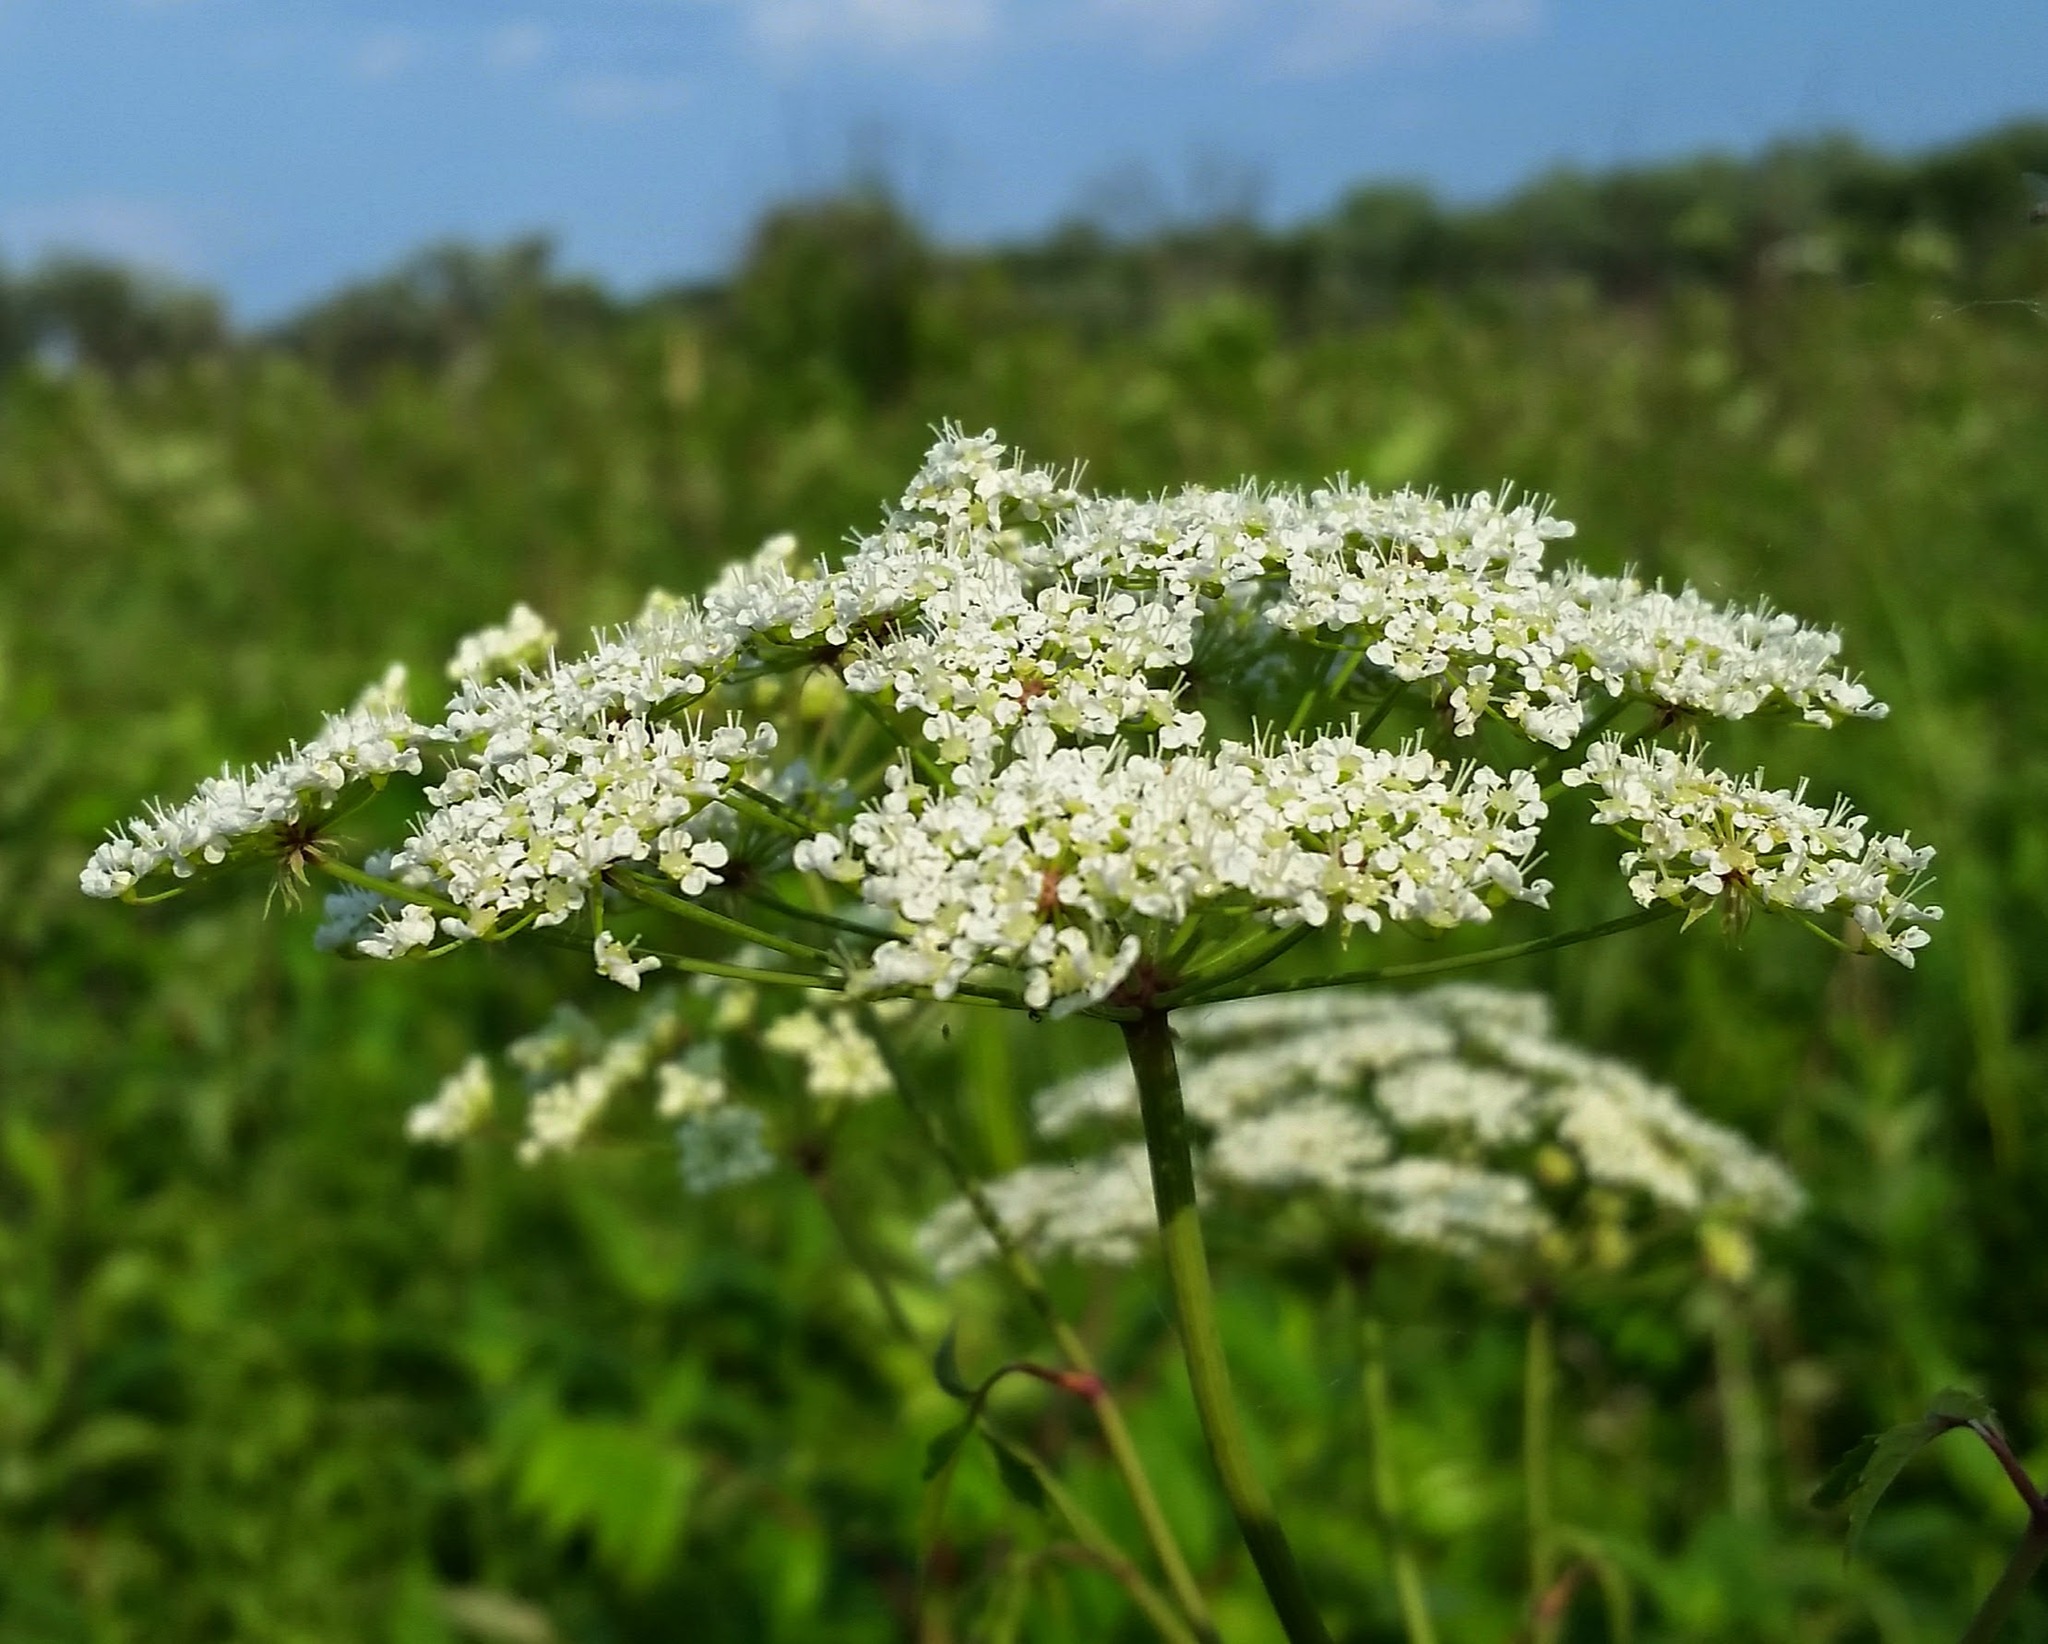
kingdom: Plantae
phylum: Tracheophyta
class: Magnoliopsida
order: Apiales
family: Apiaceae
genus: Cicuta
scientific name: Cicuta maculata
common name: Spotted cowbane
